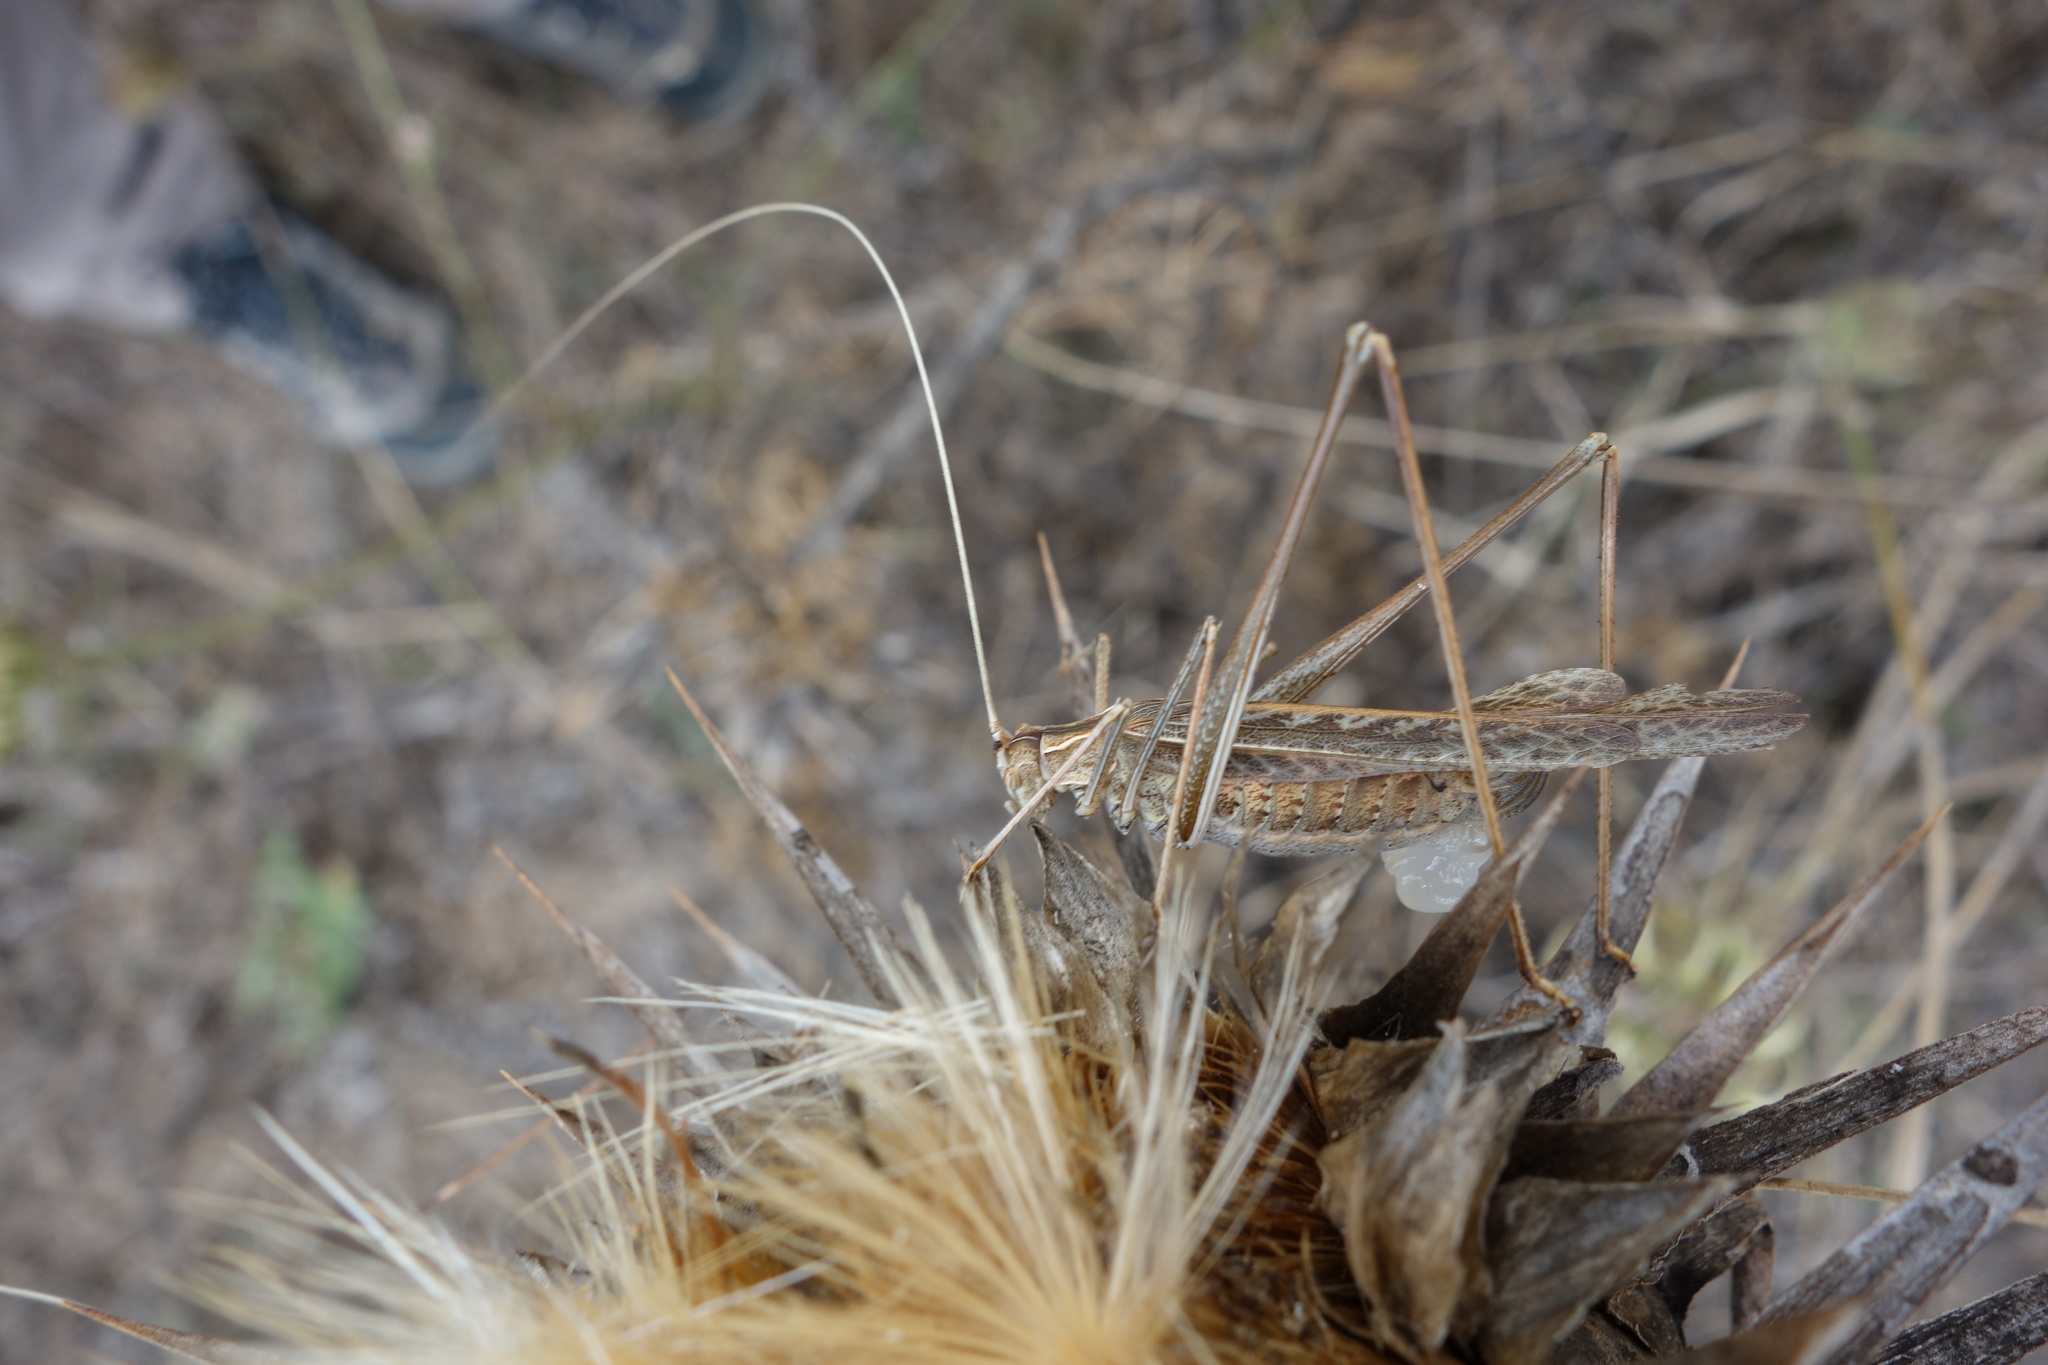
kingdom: Animalia
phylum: Arthropoda
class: Insecta
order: Orthoptera
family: Tettigoniidae
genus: Tylopsis
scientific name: Tylopsis lilifolia
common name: Lily bush-cricket
